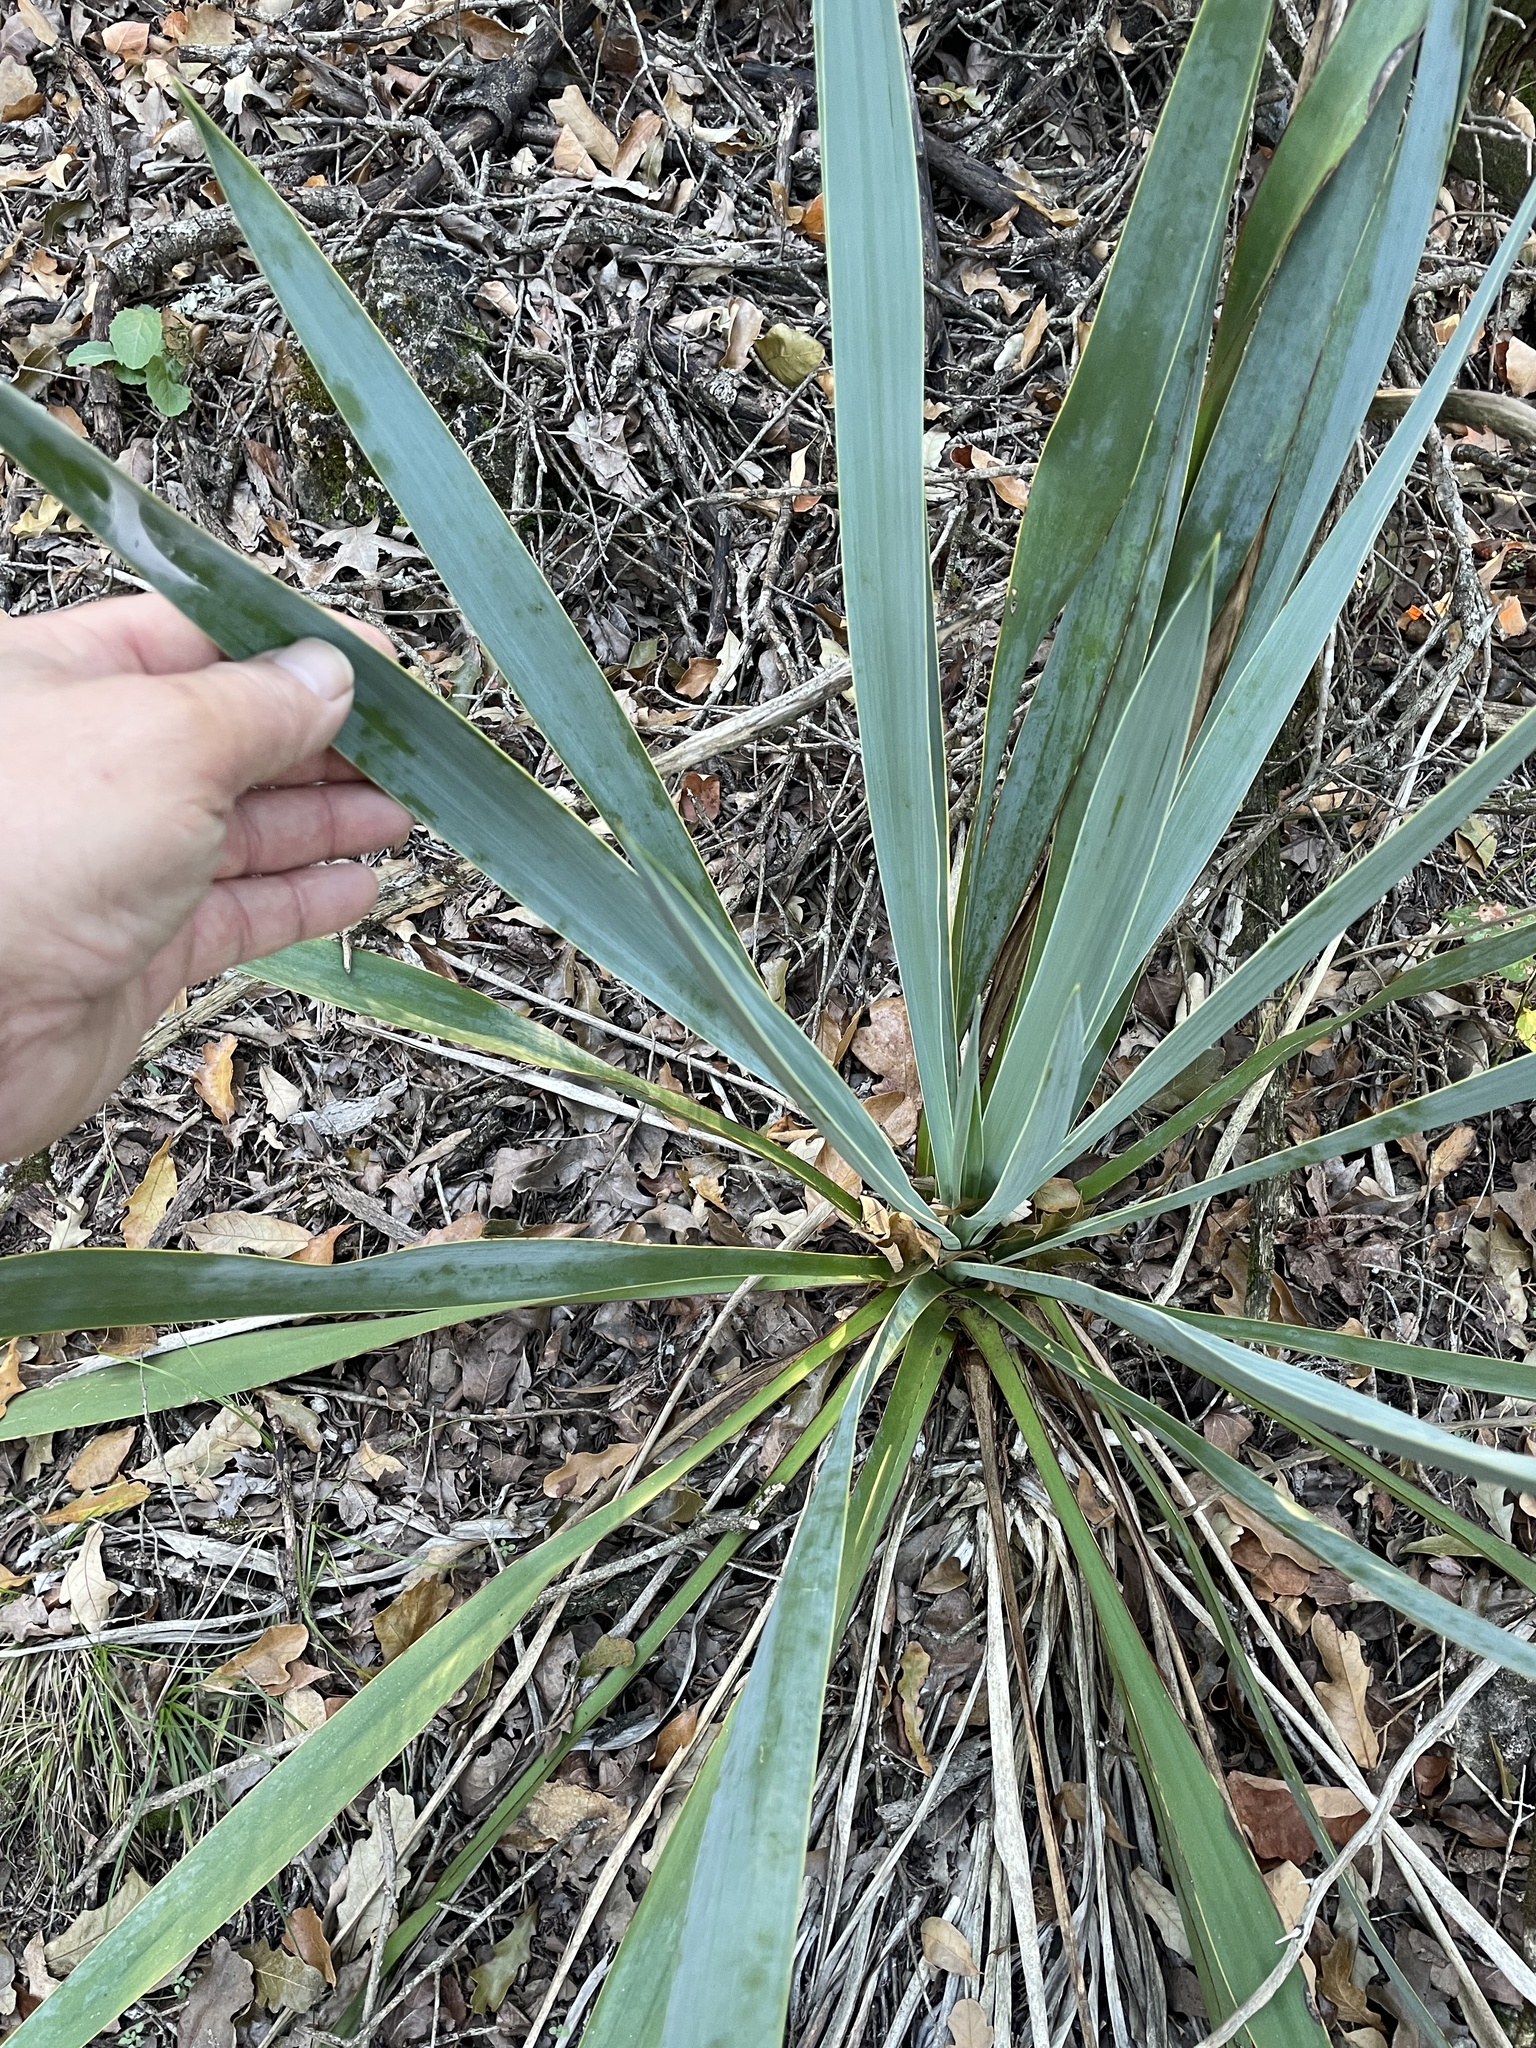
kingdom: Plantae
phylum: Tracheophyta
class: Liliopsida
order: Asparagales
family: Asparagaceae
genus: Yucca
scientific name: Yucca pallida
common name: Pale leaf yucca
